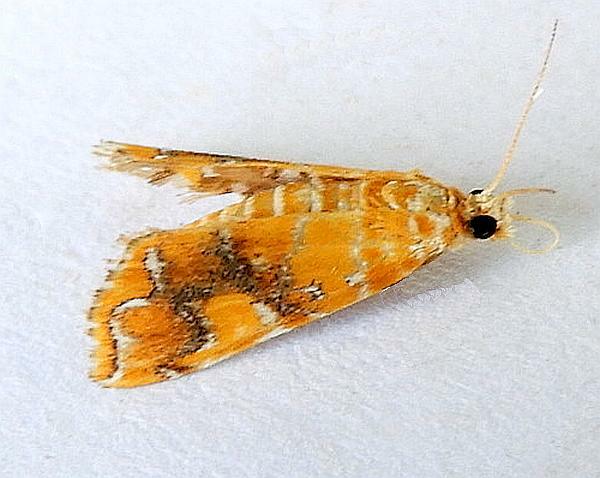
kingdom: Animalia
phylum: Arthropoda
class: Insecta
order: Lepidoptera
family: Crambidae
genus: Elophila
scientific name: Elophila nebulosalis
